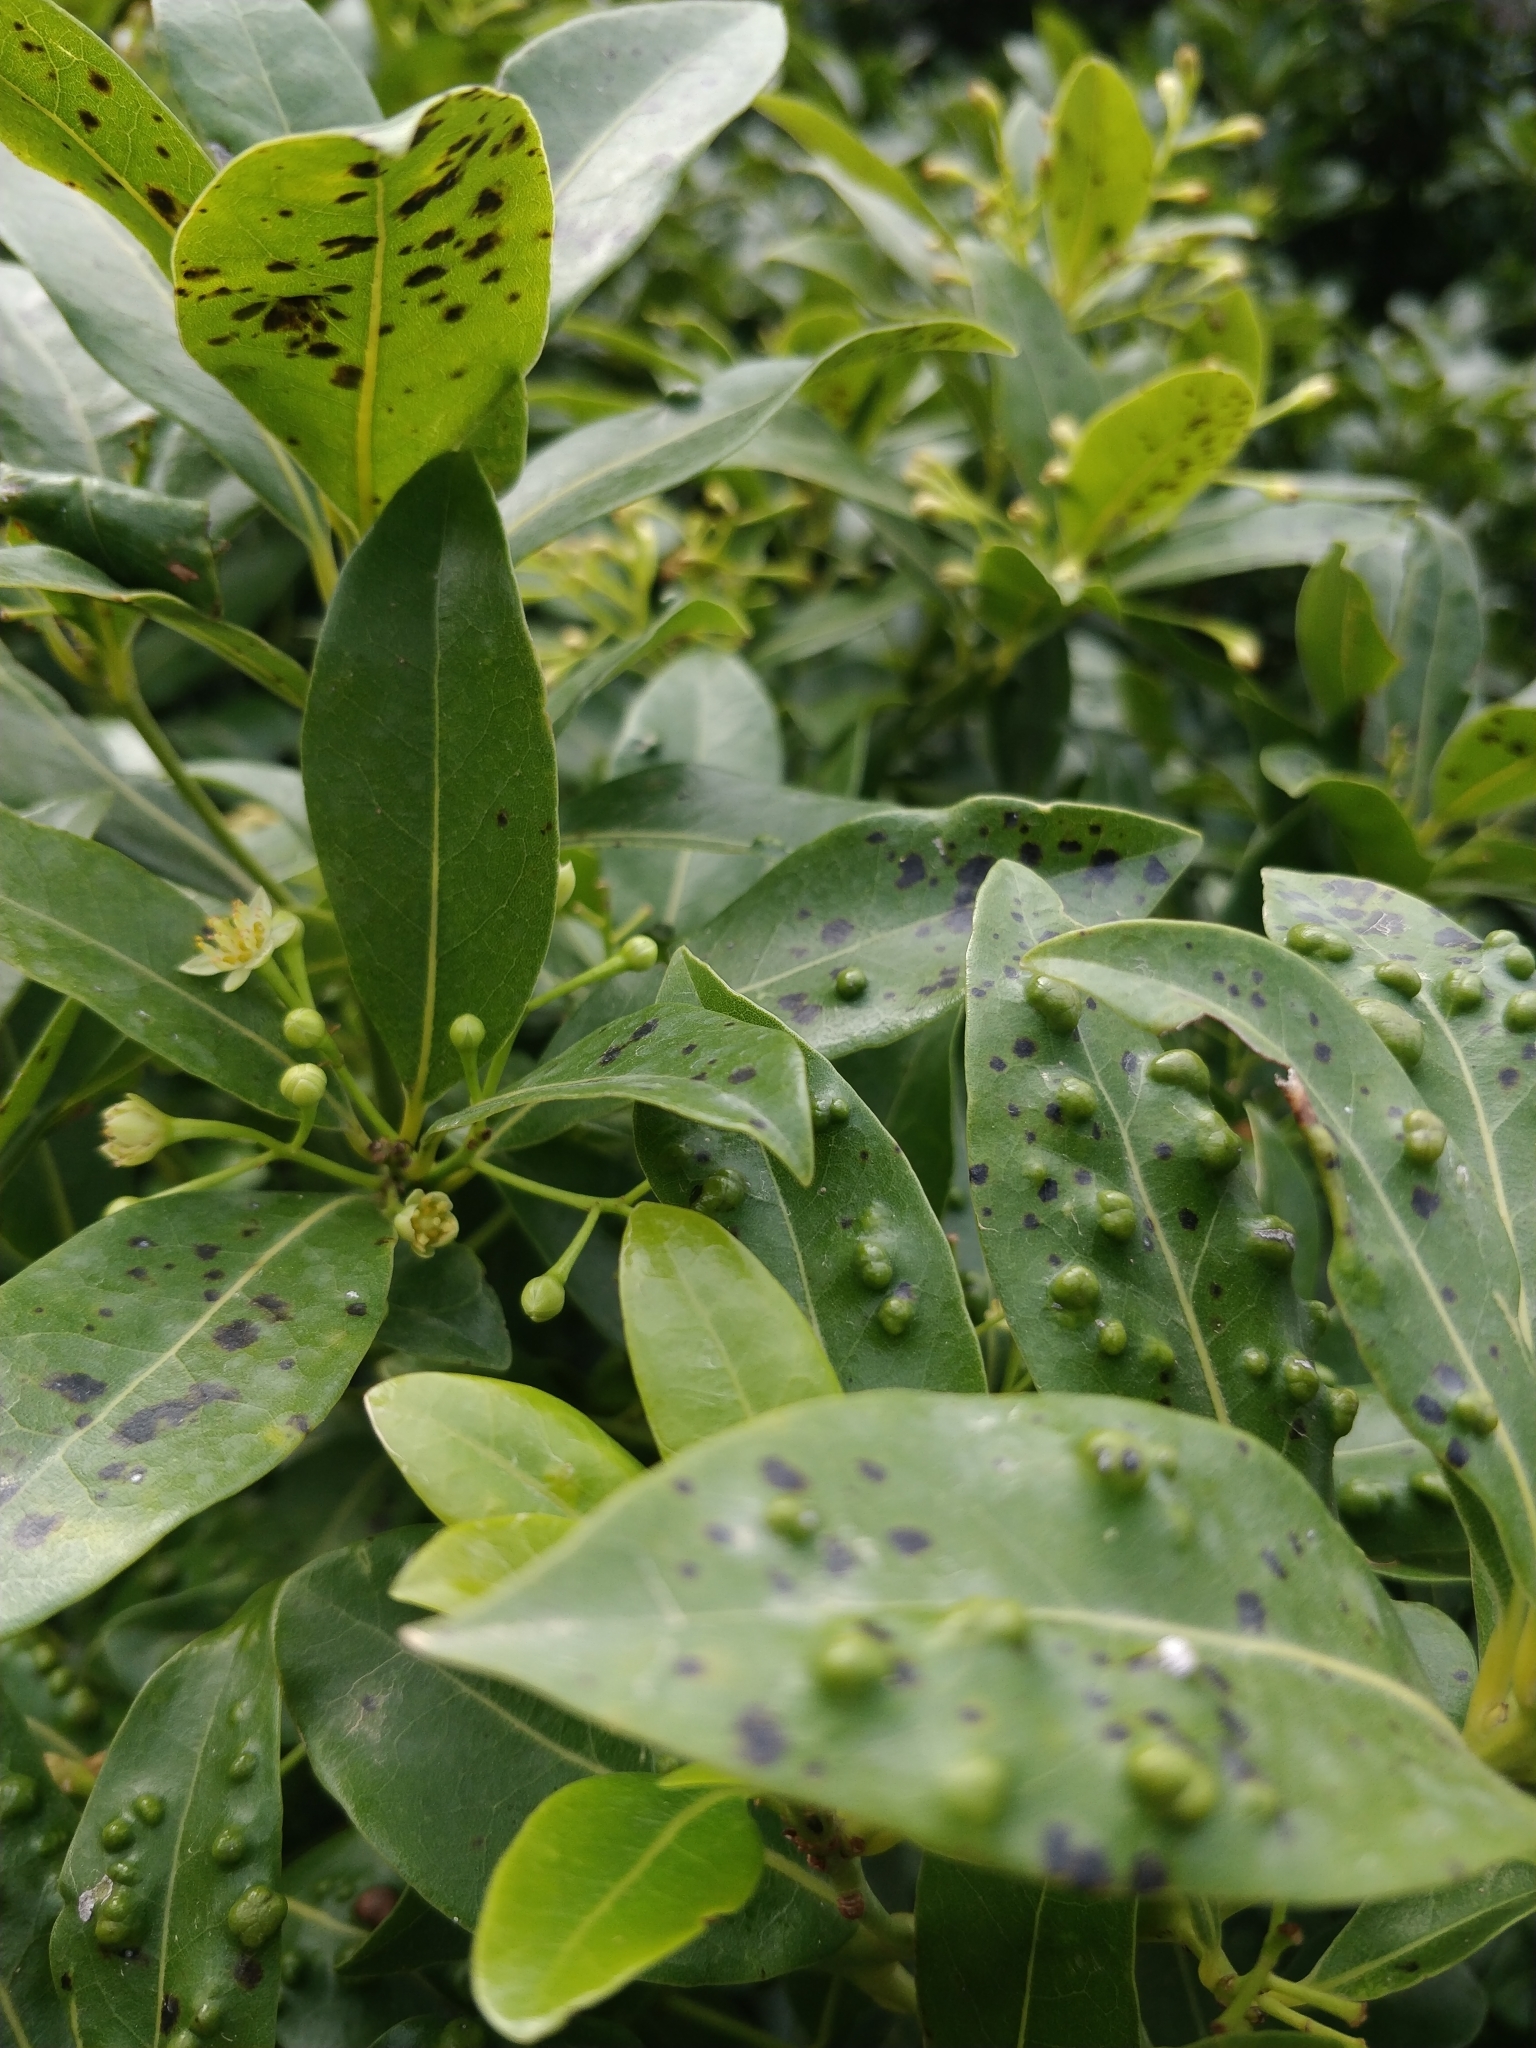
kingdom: Plantae
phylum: Tracheophyta
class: Magnoliopsida
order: Laurales
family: Lauraceae
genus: Apollonias
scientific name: Apollonias barbujana
